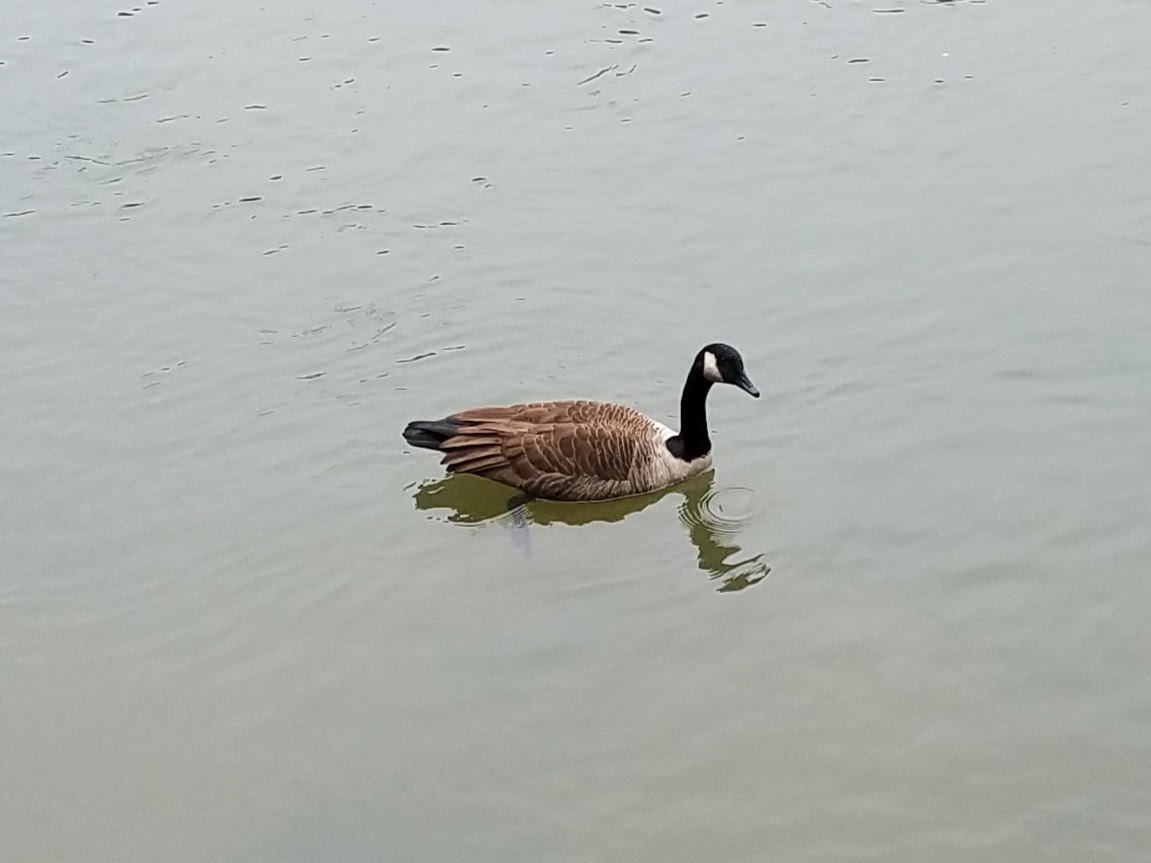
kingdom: Animalia
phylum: Chordata
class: Aves
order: Anseriformes
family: Anatidae
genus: Branta
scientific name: Branta canadensis
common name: Canada goose
